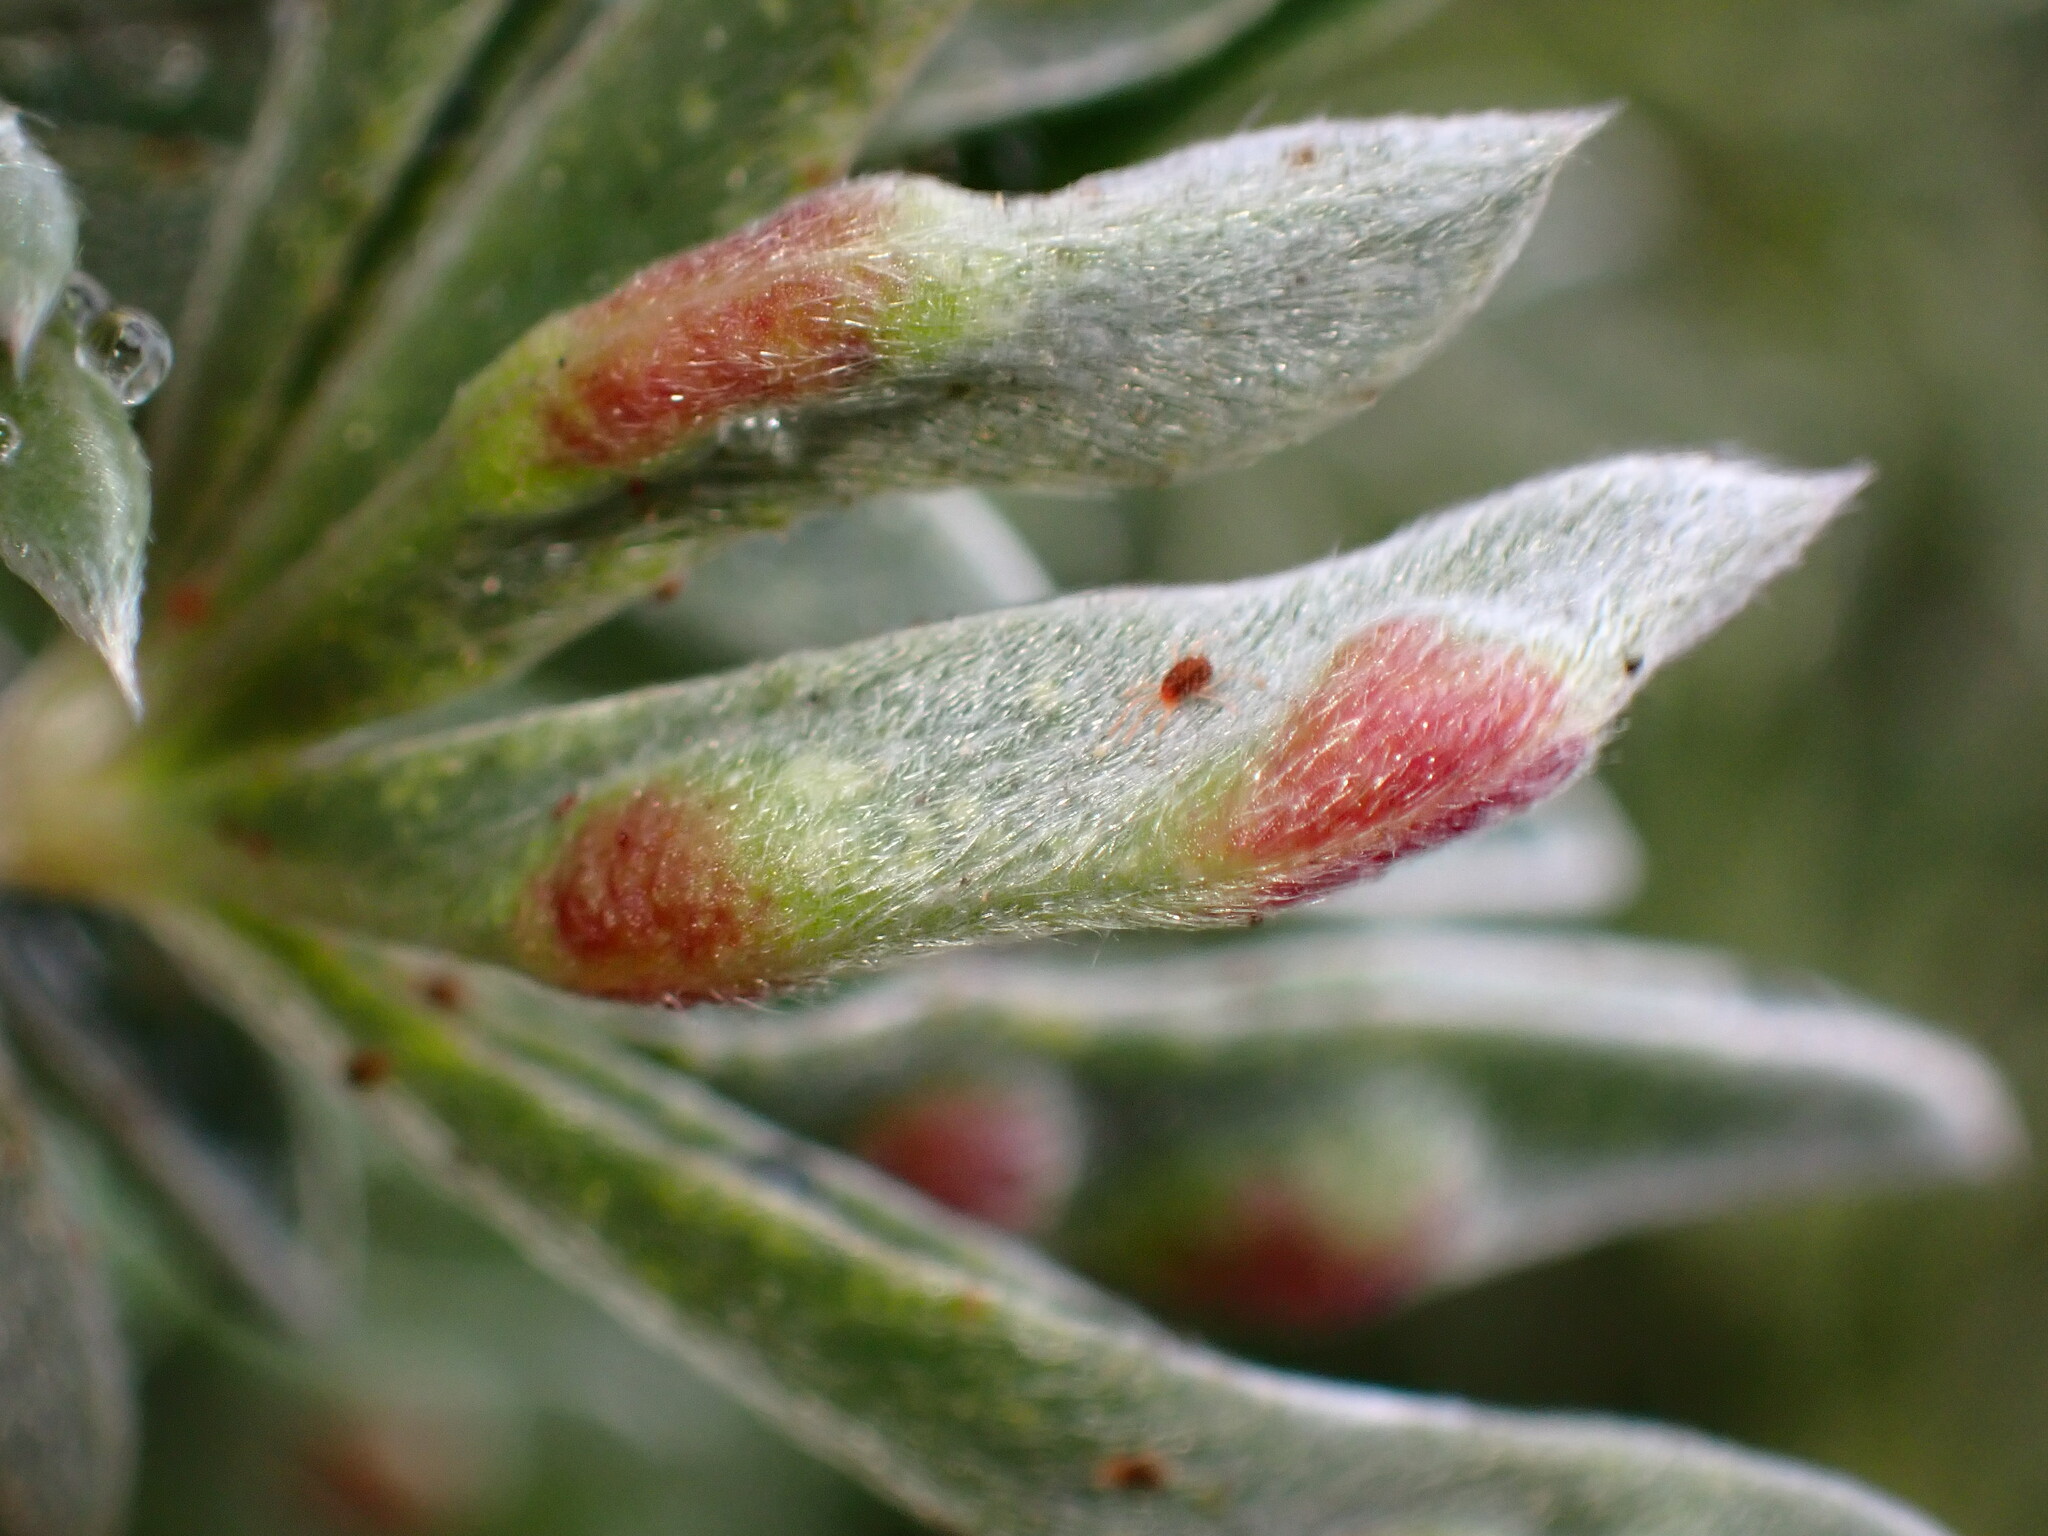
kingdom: Animalia
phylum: Arthropoda
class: Insecta
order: Diptera
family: Cecidomyiidae
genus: Dasineura
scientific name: Dasineura lupinorum
